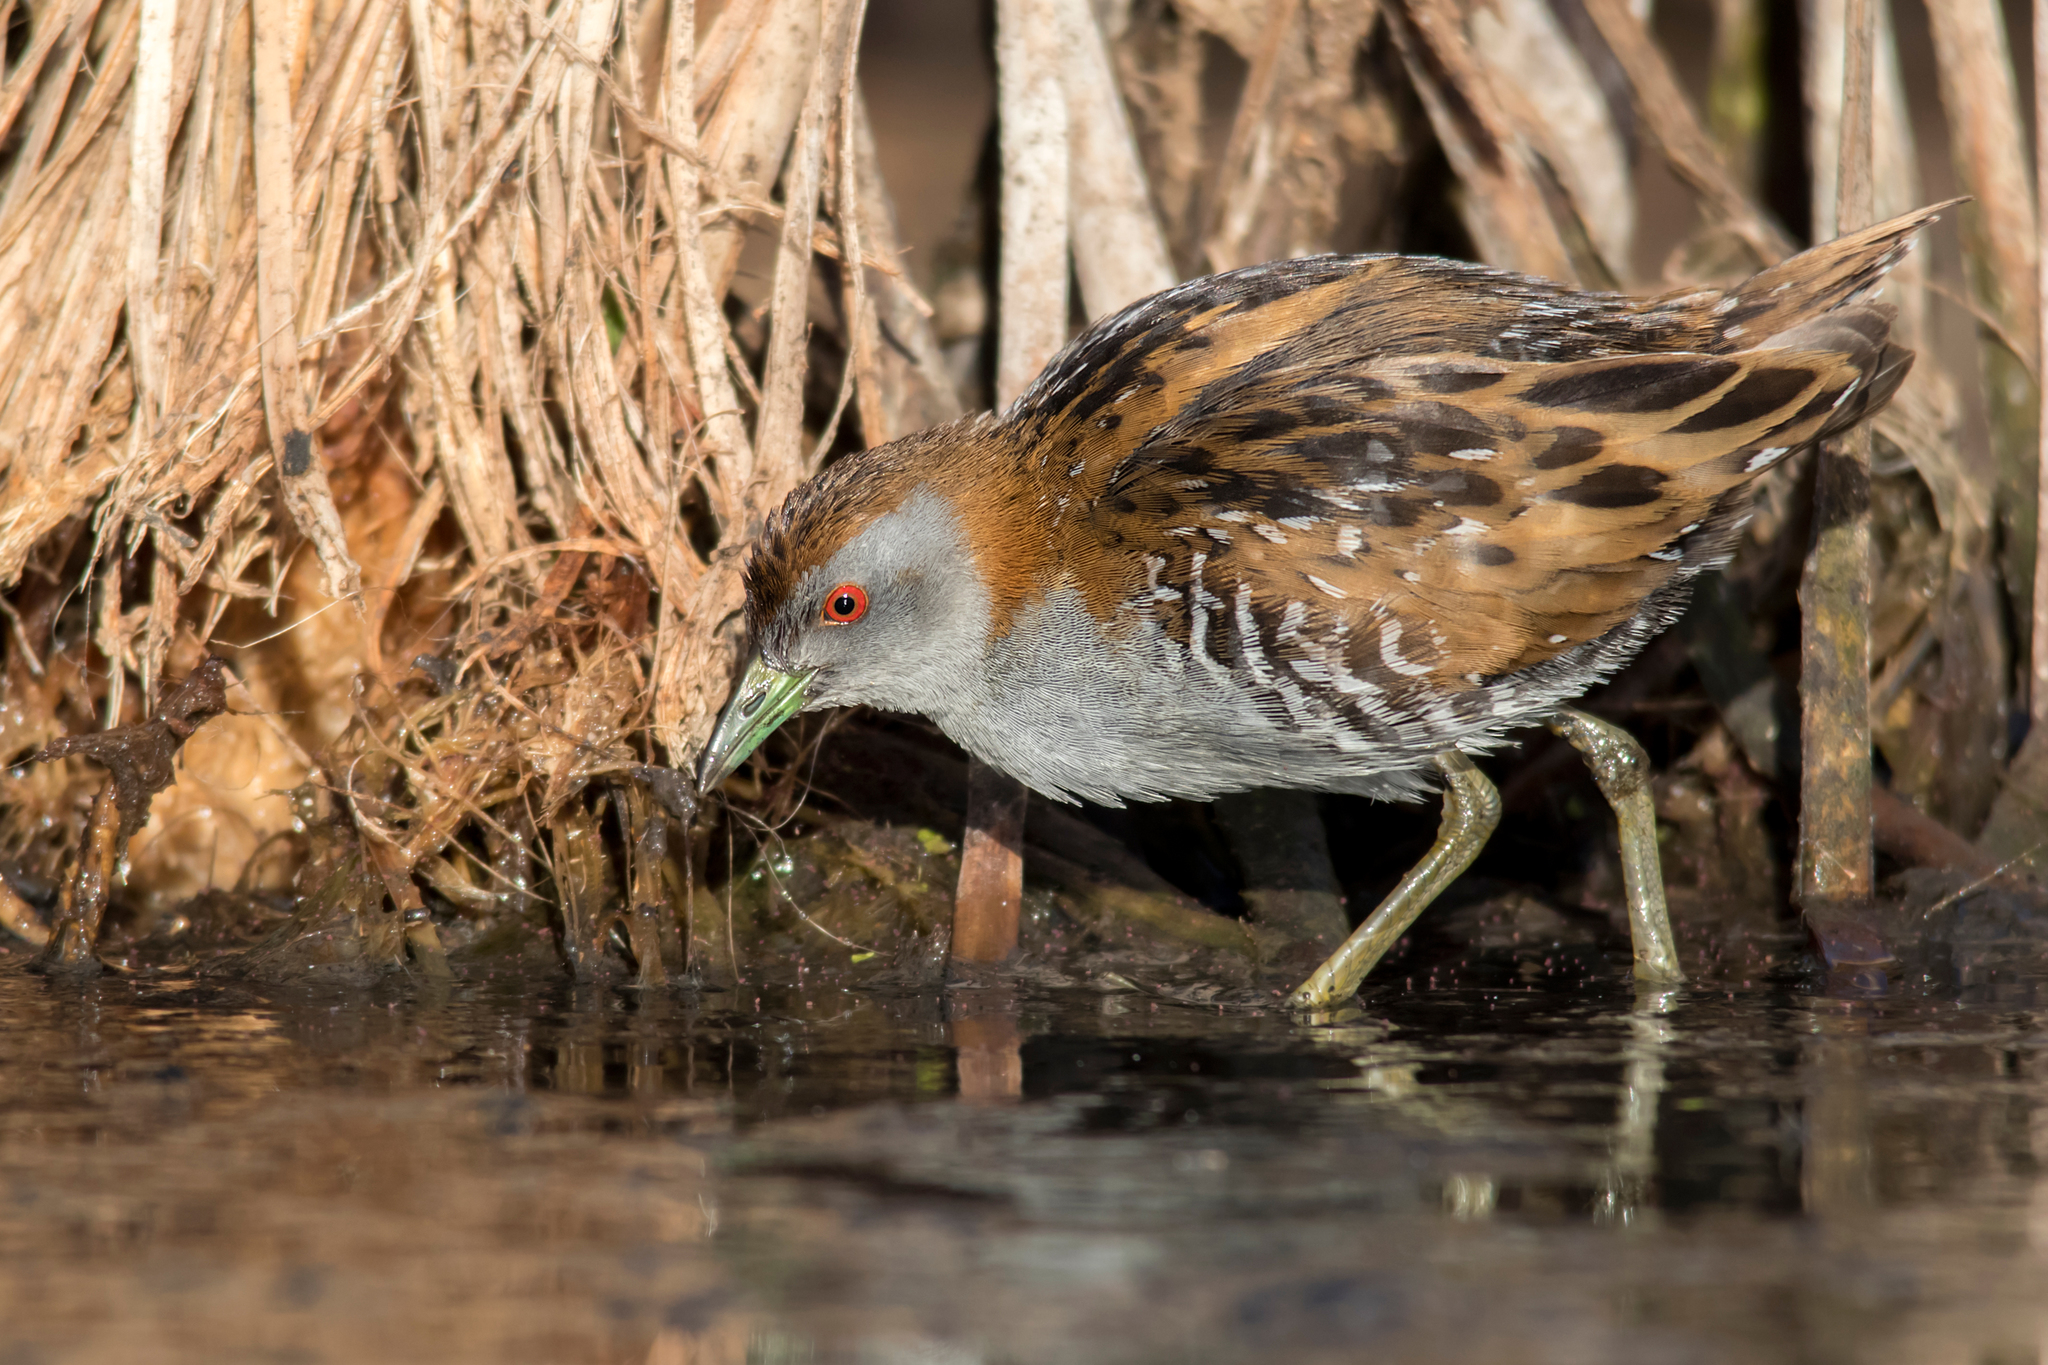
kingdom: Animalia
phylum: Chordata
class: Aves
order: Gruiformes
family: Rallidae
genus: Porzana
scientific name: Porzana pusilla
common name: Baillon's crake
